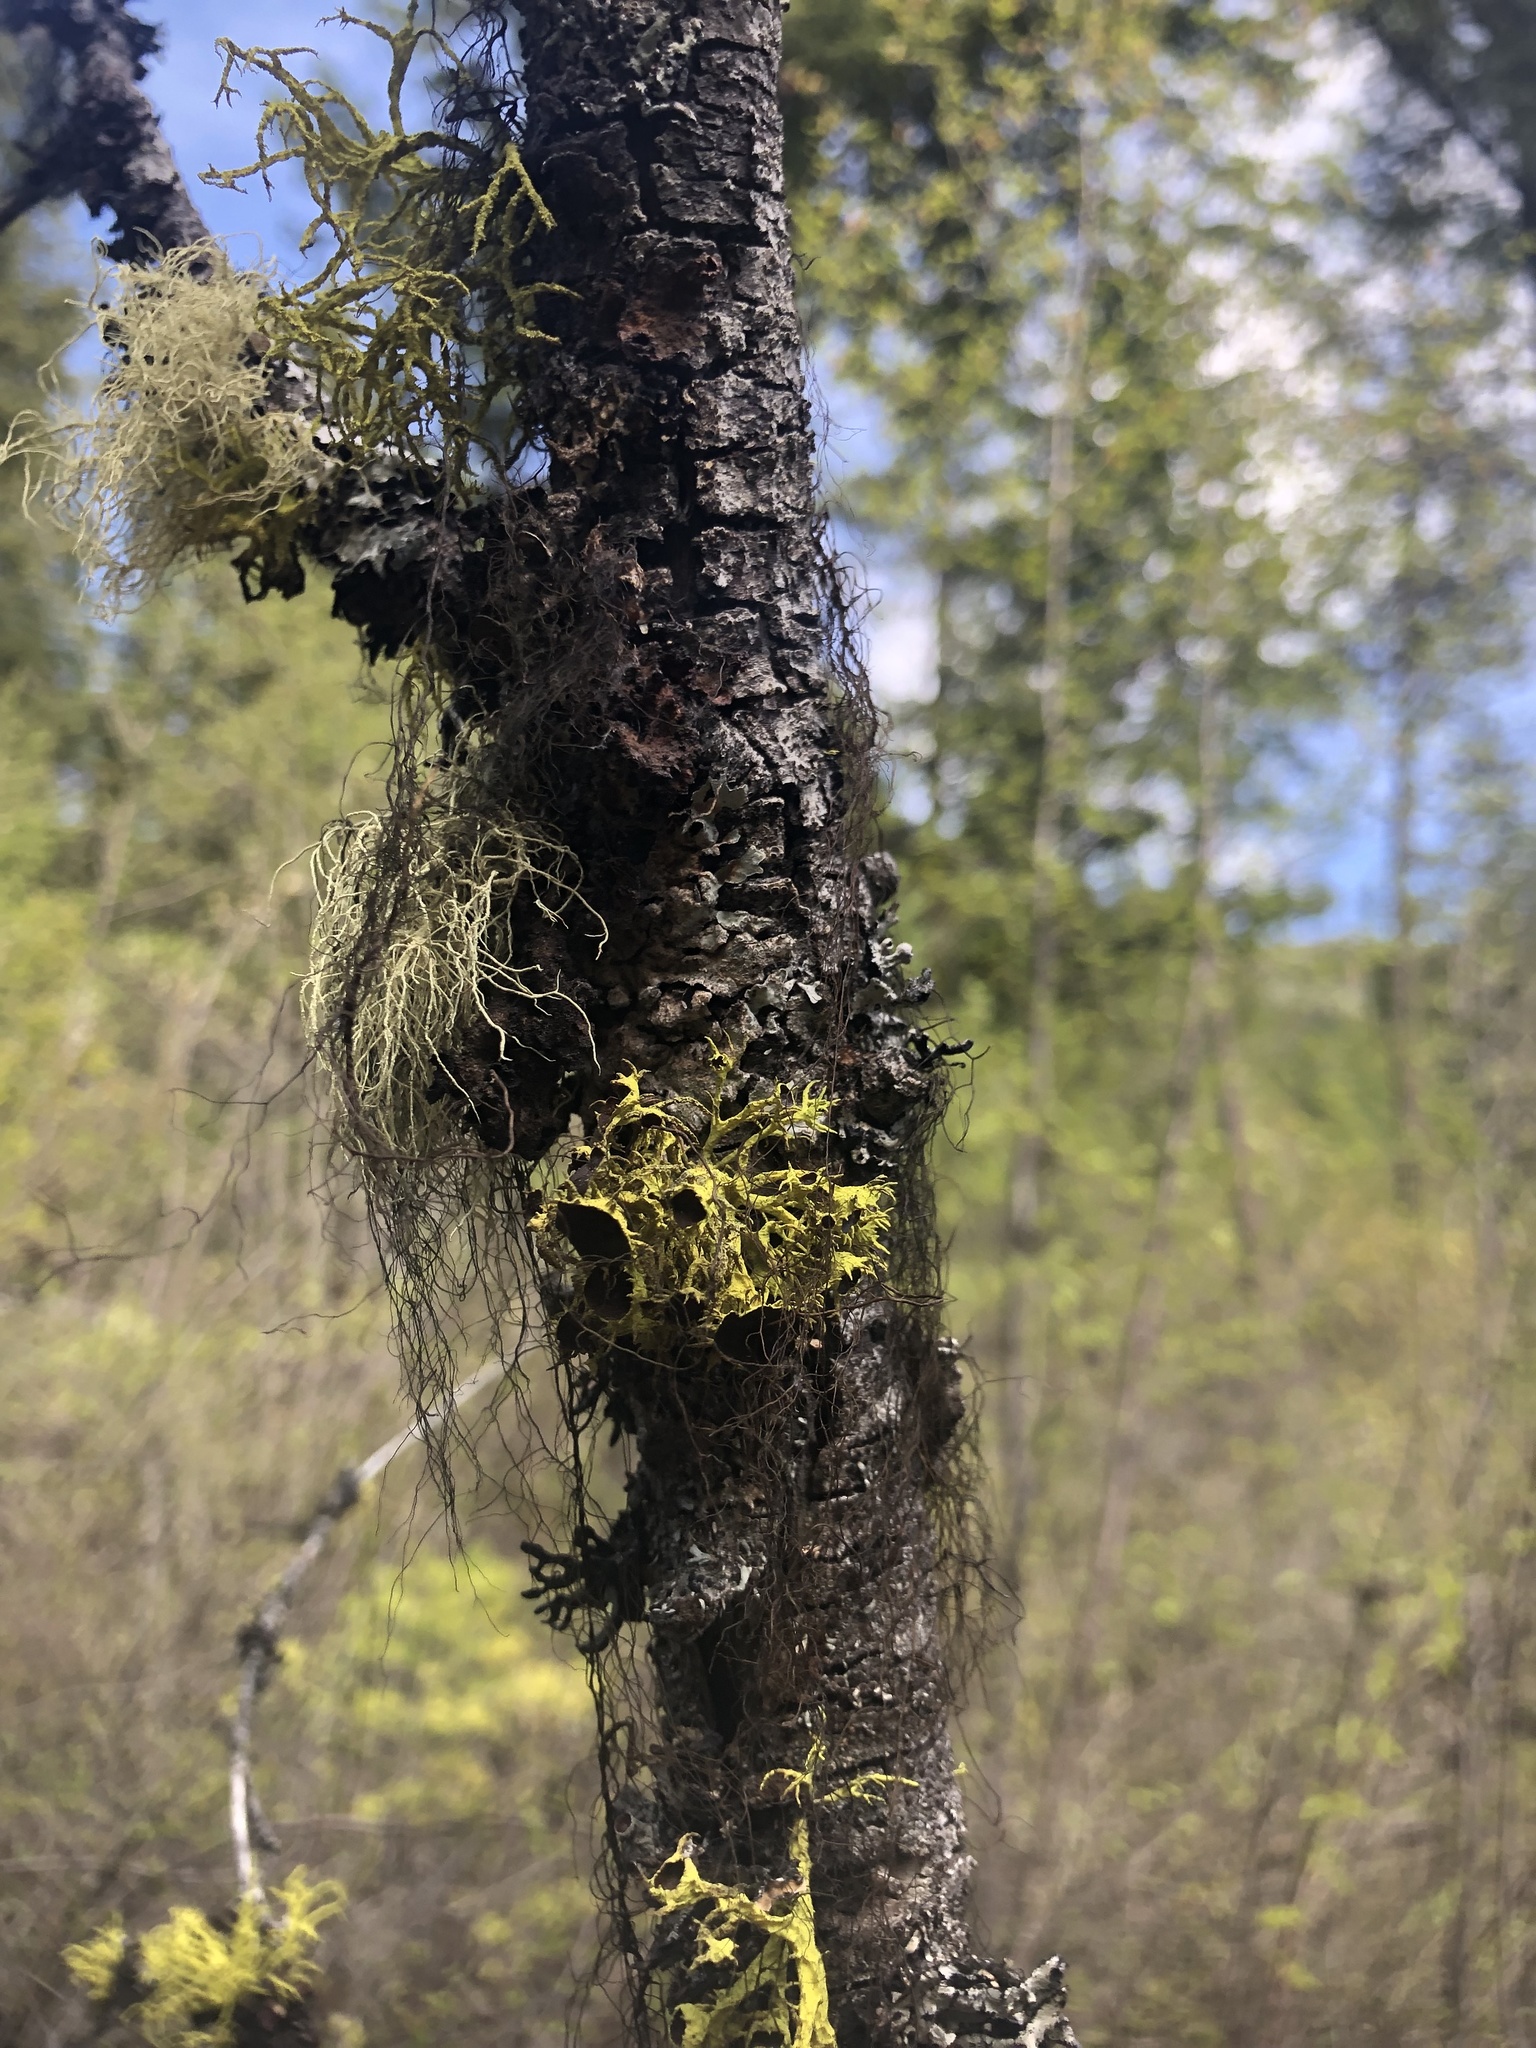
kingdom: Fungi
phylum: Ascomycota
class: Lecanoromycetes
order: Lecanorales
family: Parmeliaceae
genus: Letharia
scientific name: Letharia columbiana
